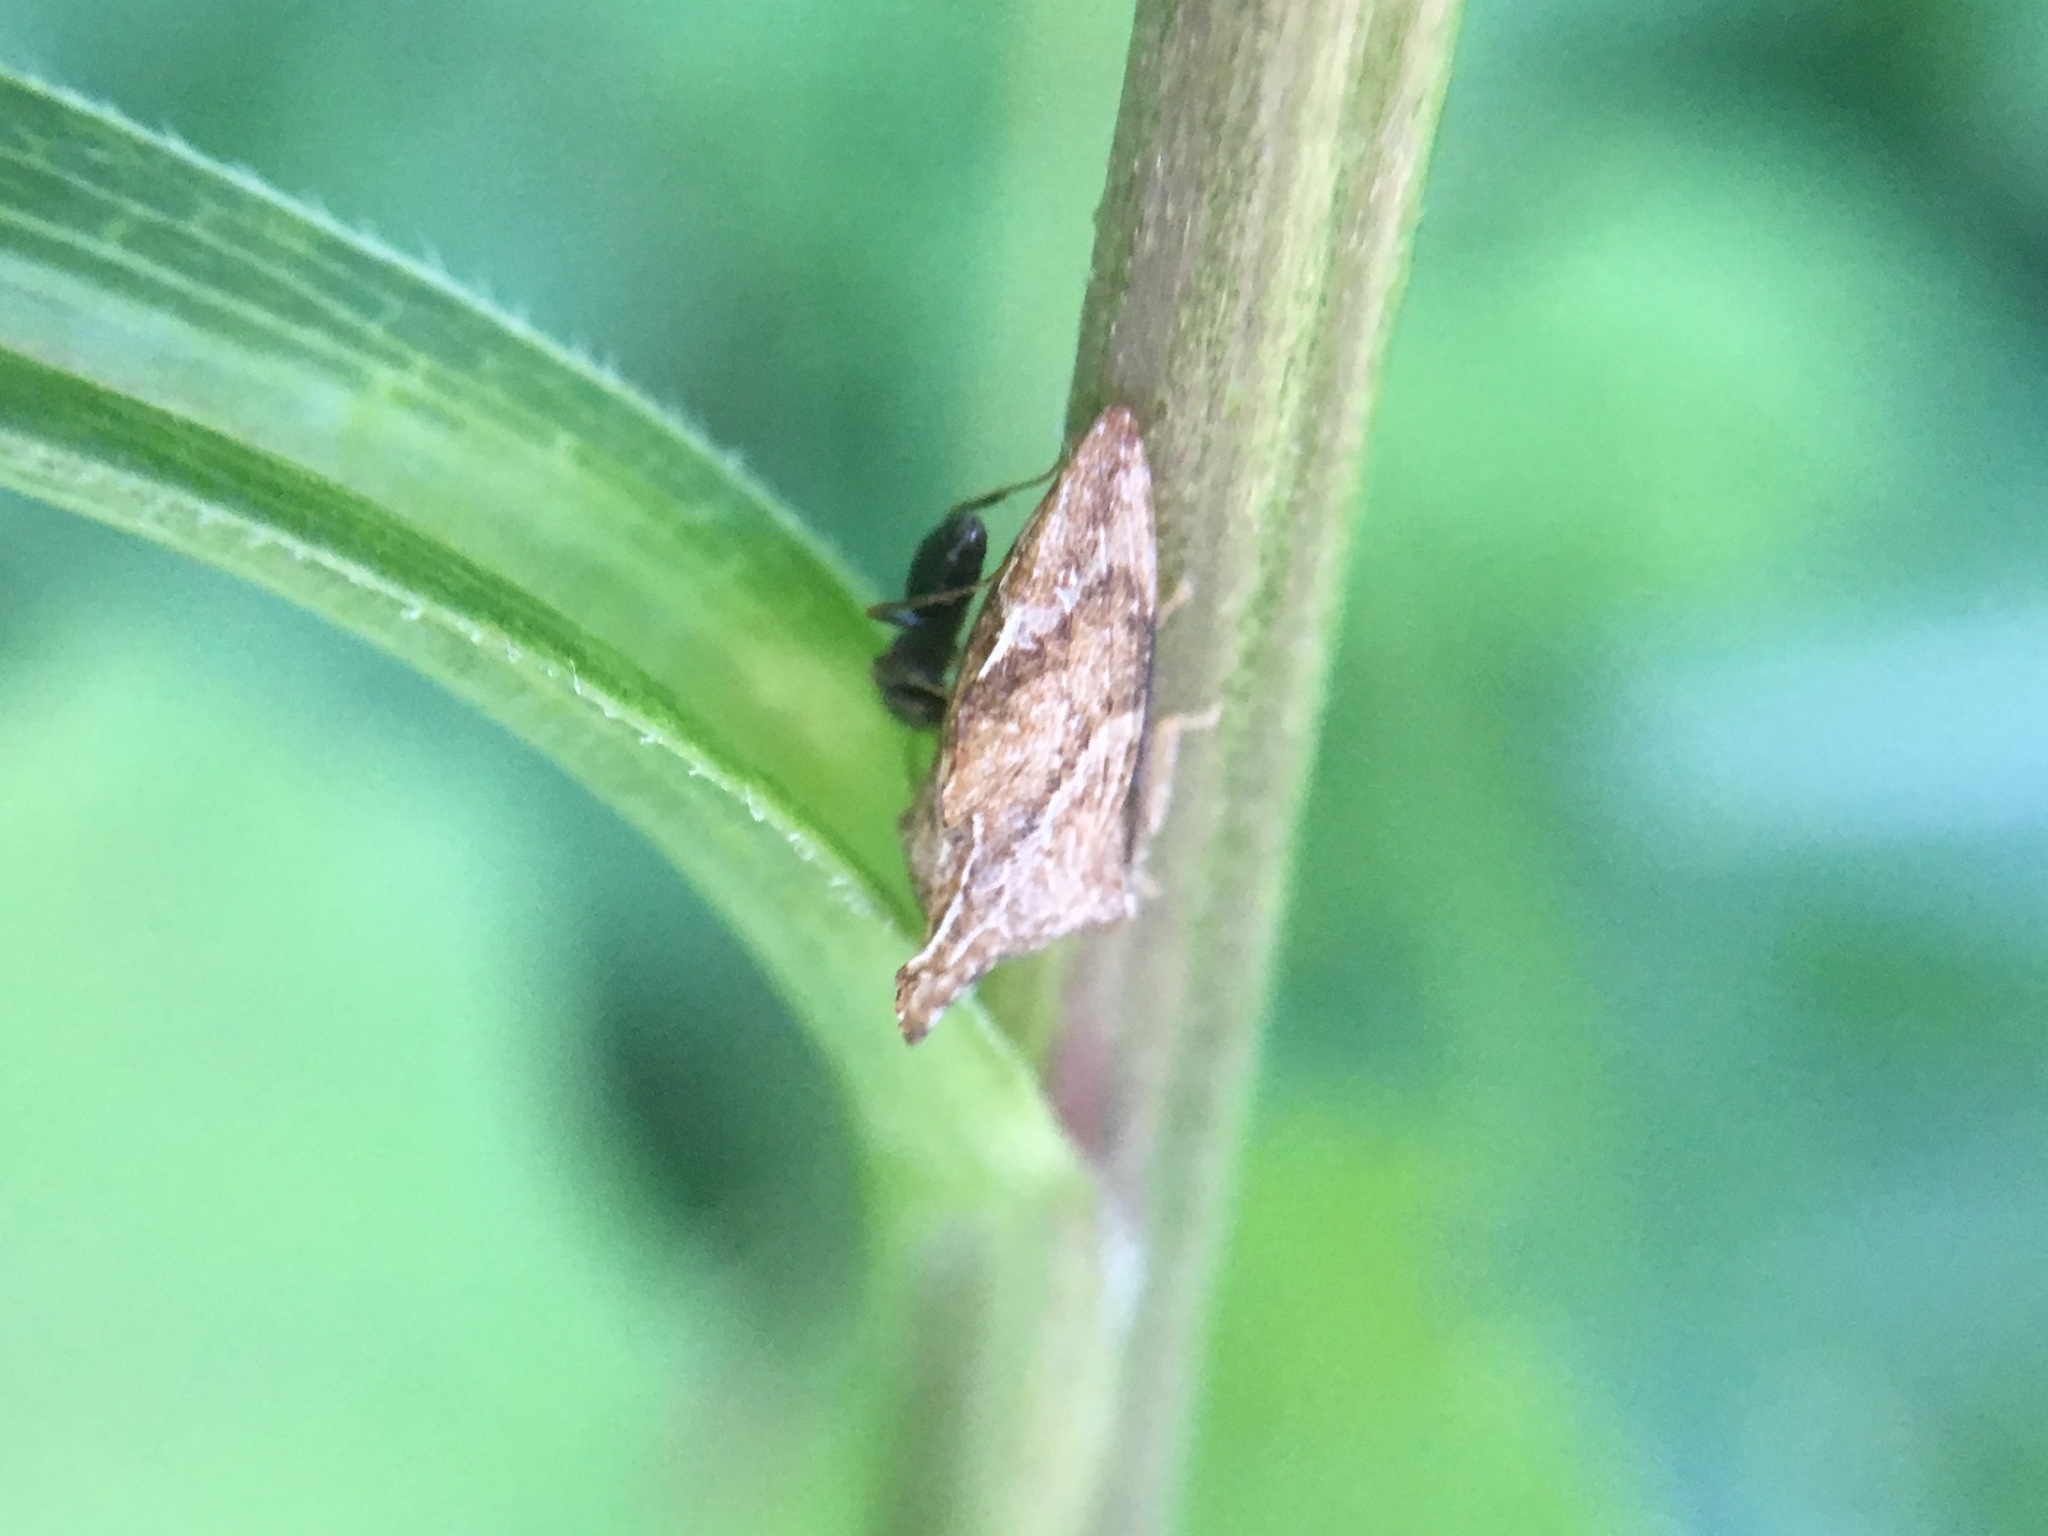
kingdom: Animalia
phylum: Arthropoda
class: Insecta
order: Hemiptera
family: Membracidae
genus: Entylia
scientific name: Entylia carinata
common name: Keeled treehopper
